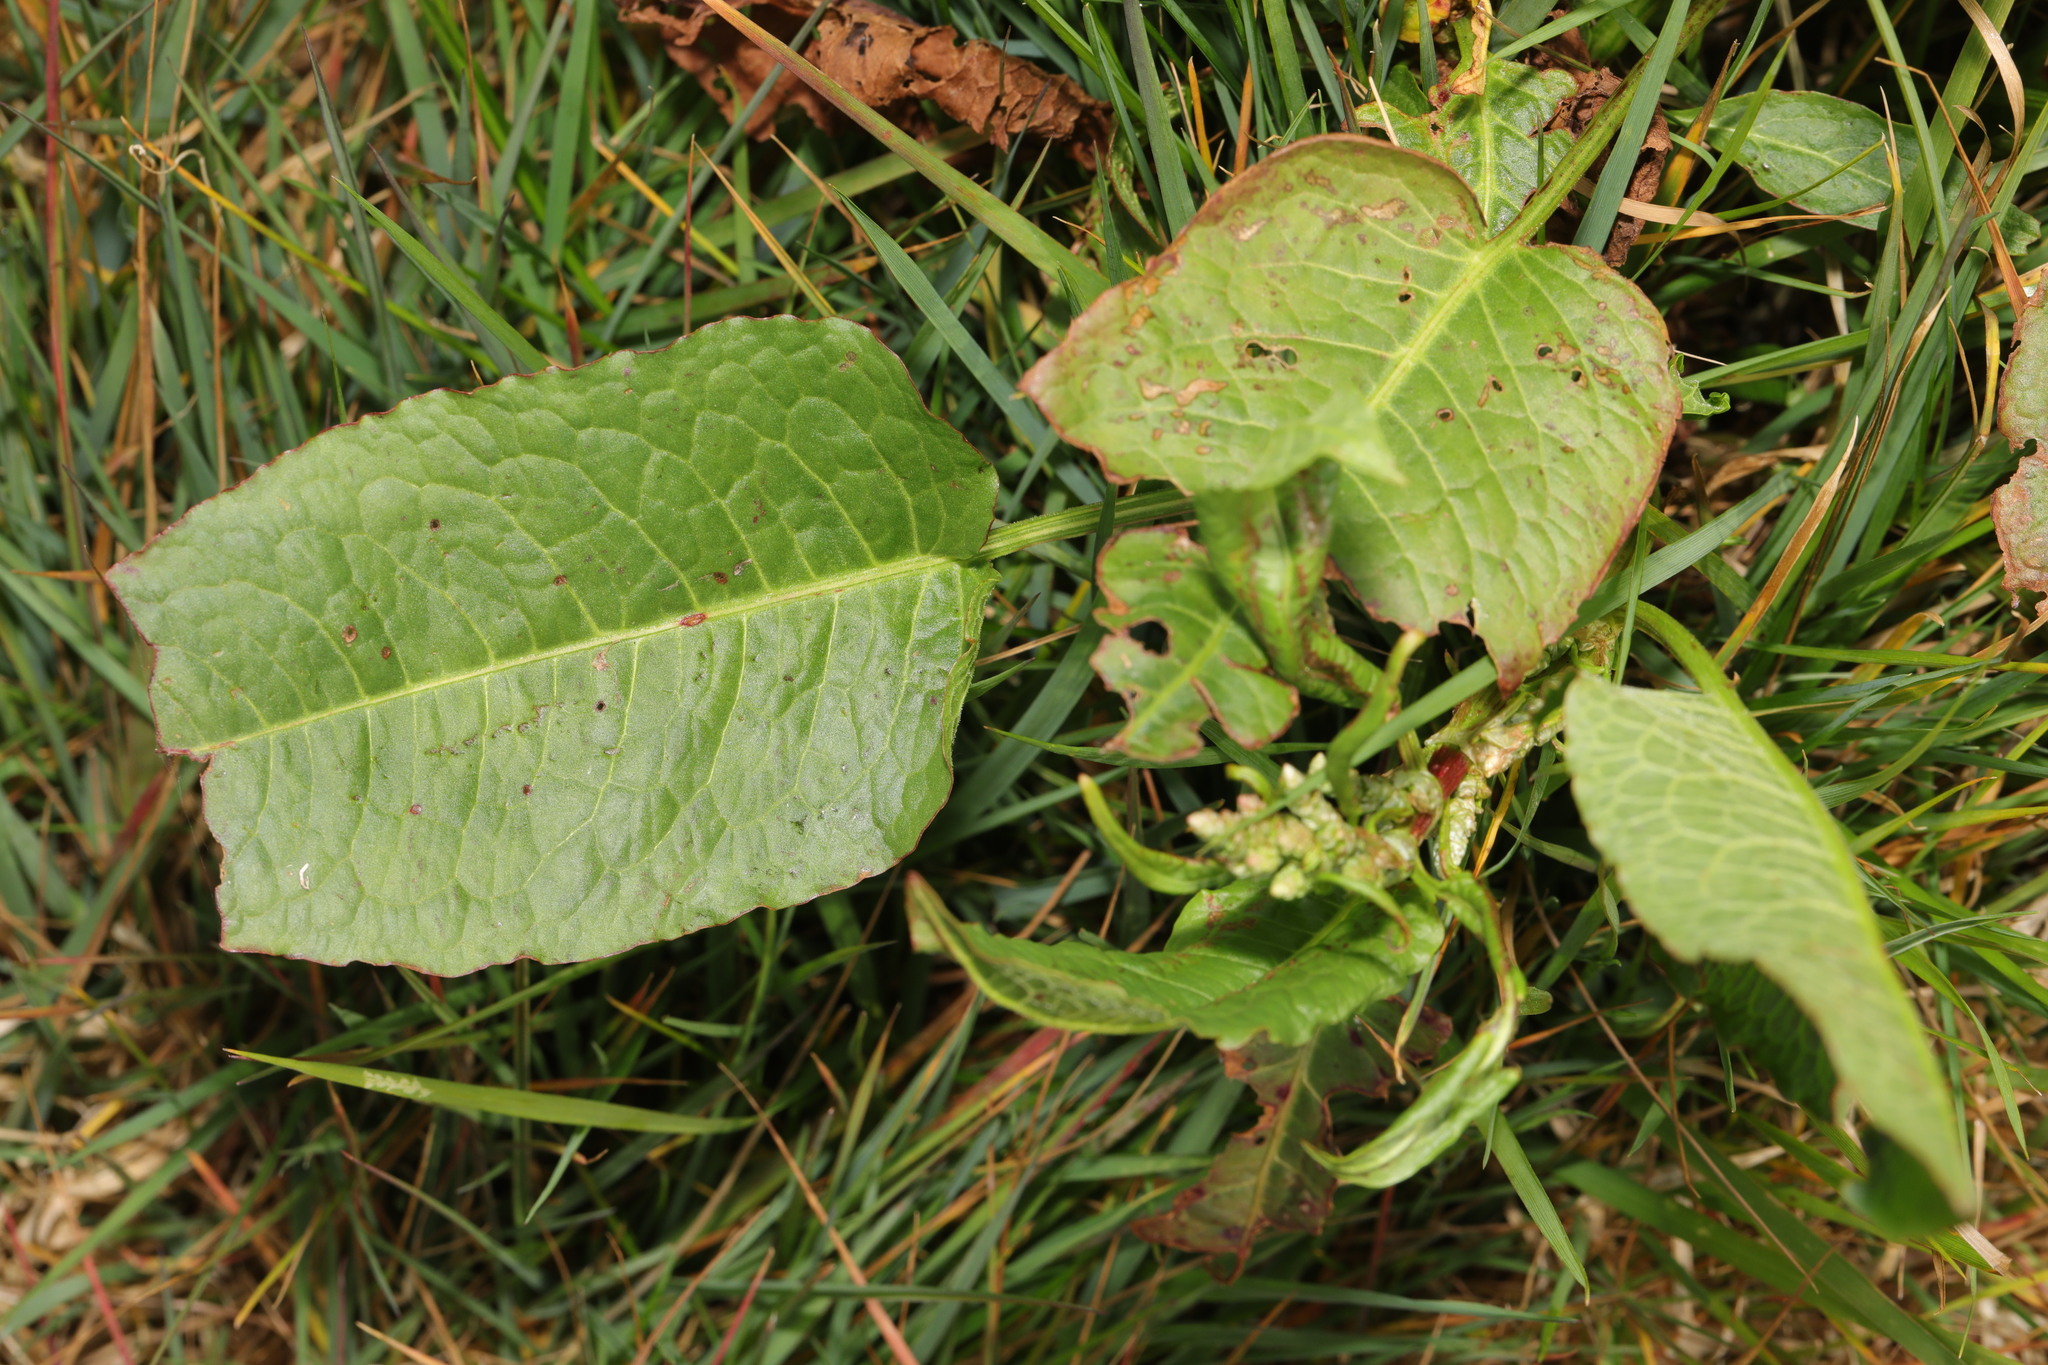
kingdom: Plantae
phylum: Tracheophyta
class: Magnoliopsida
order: Caryophyllales
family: Polygonaceae
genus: Rumex
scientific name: Rumex obtusifolius
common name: Bitter dock
